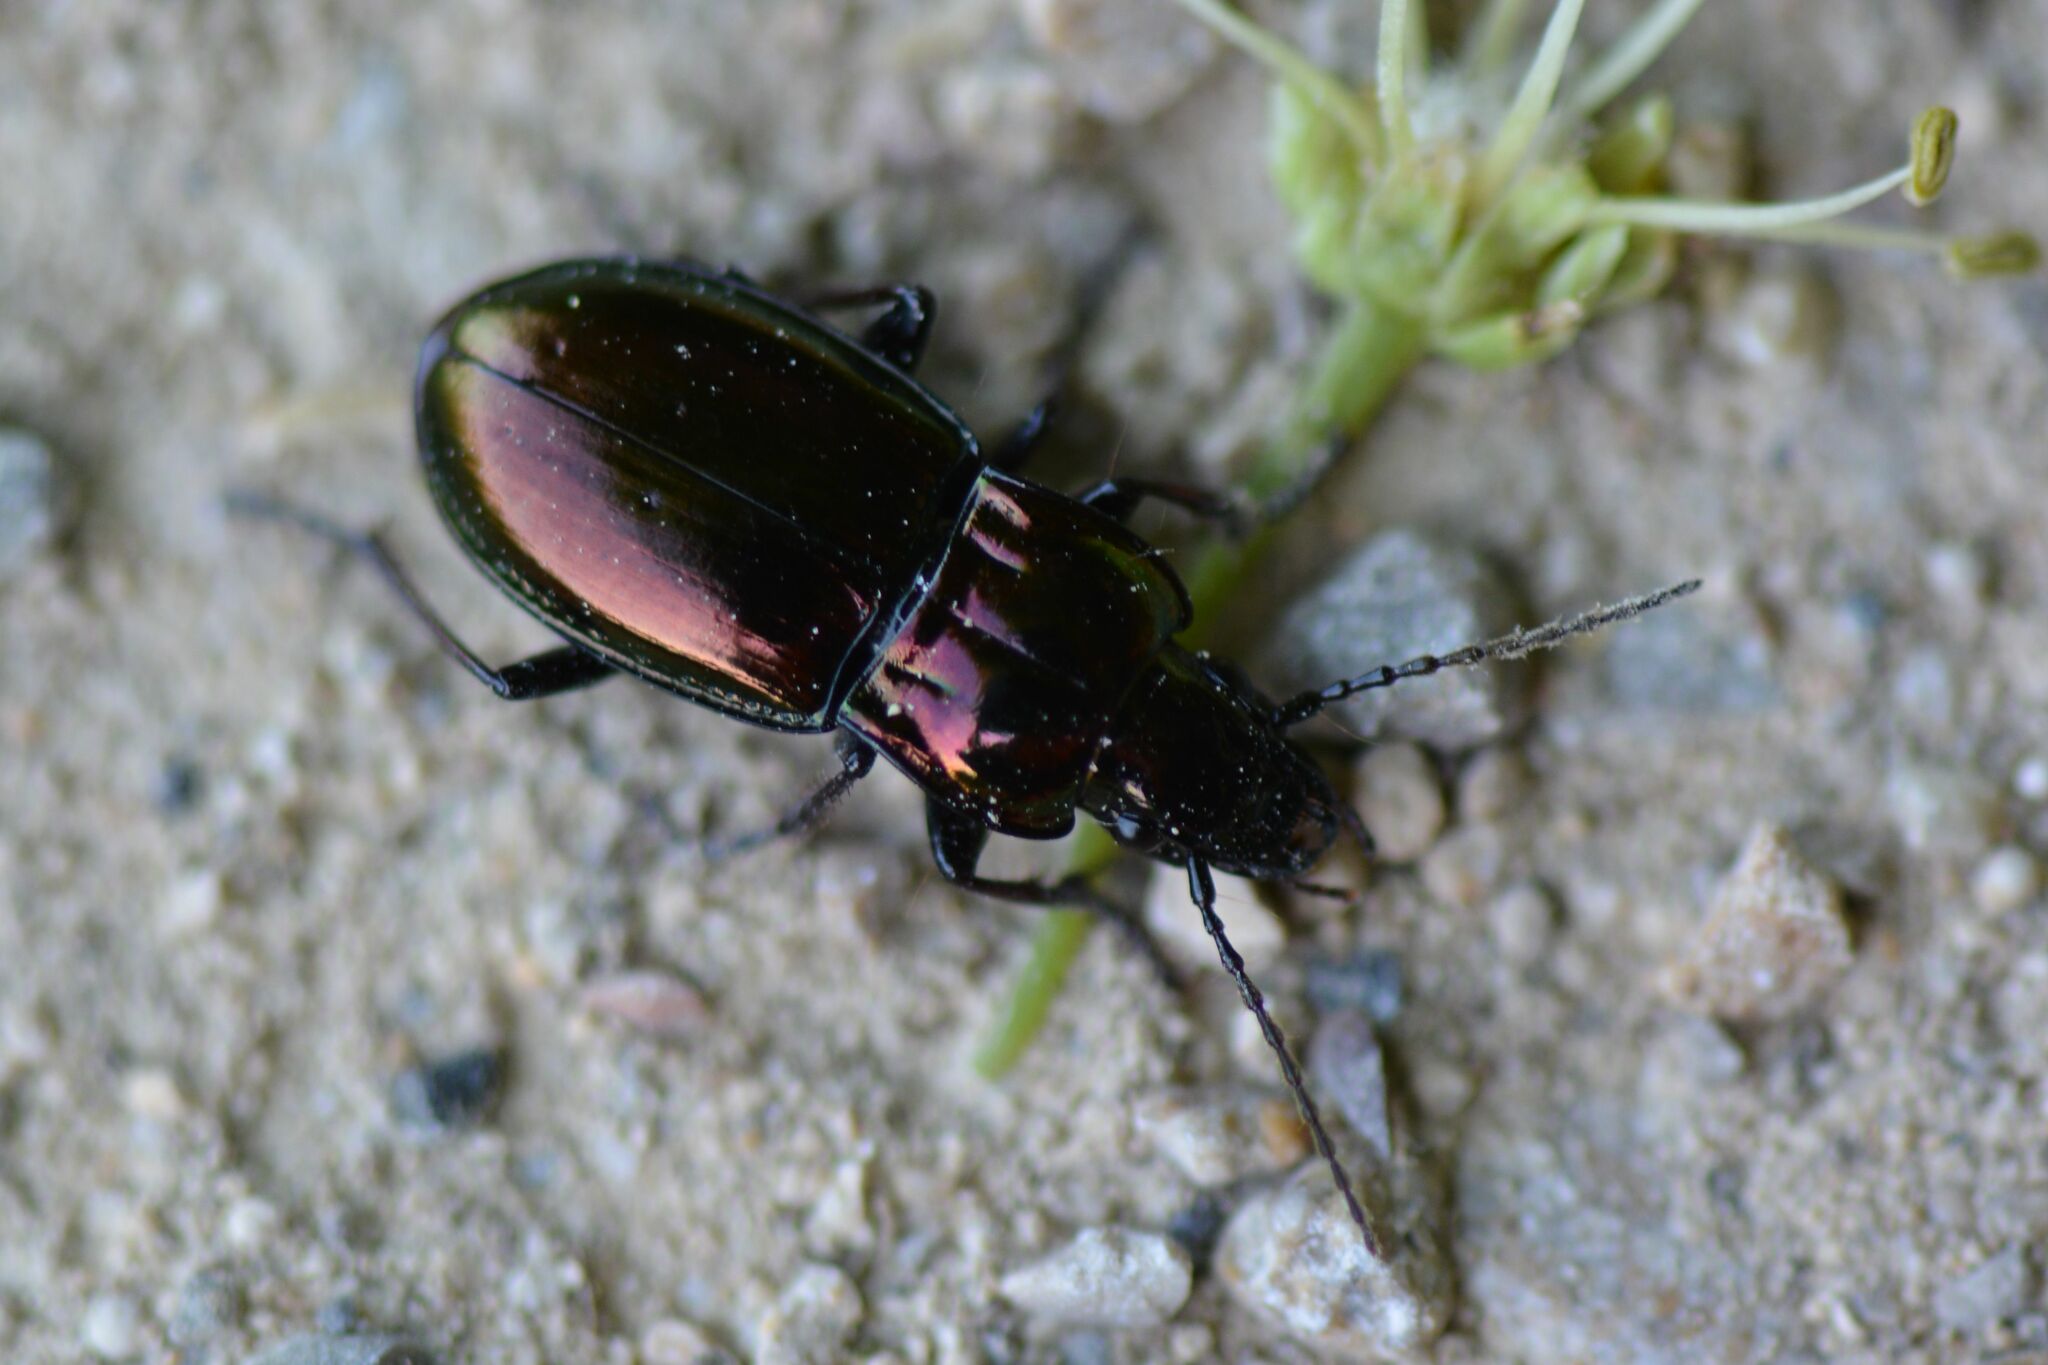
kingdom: Animalia
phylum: Arthropoda
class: Insecta
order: Coleoptera
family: Carabidae
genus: Pterostichus
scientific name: Pterostichus burmeisteri
